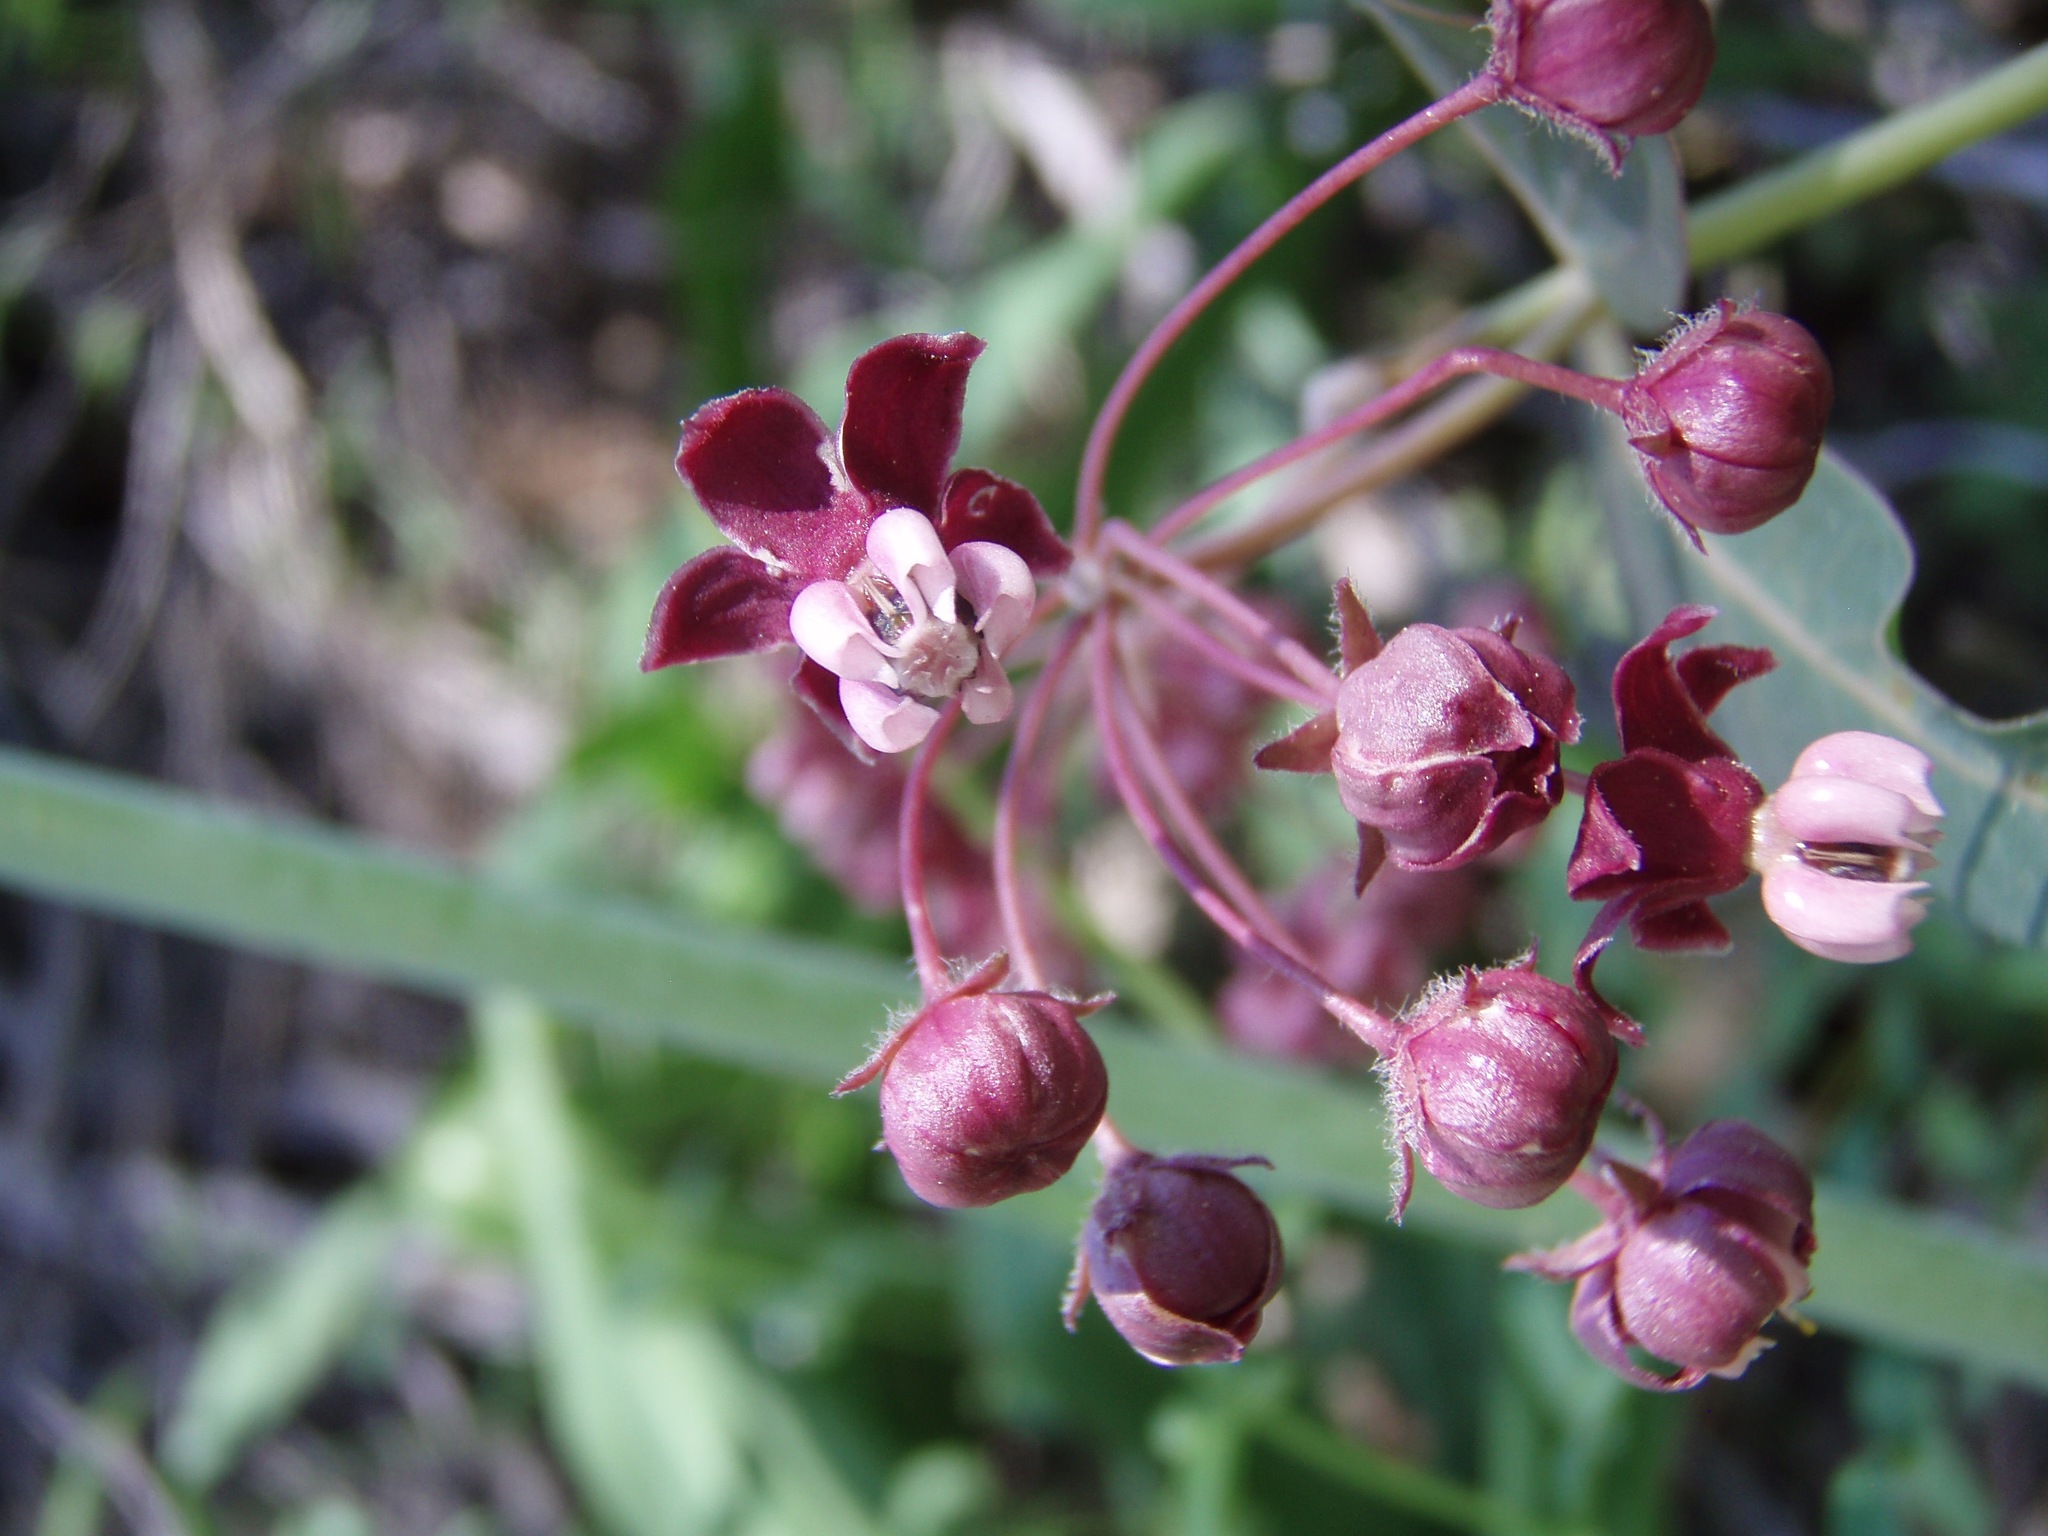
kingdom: Plantae
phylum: Tracheophyta
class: Magnoliopsida
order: Gentianales
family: Apocynaceae
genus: Asclepias
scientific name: Asclepias cordifolia
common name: Purple milkweed
